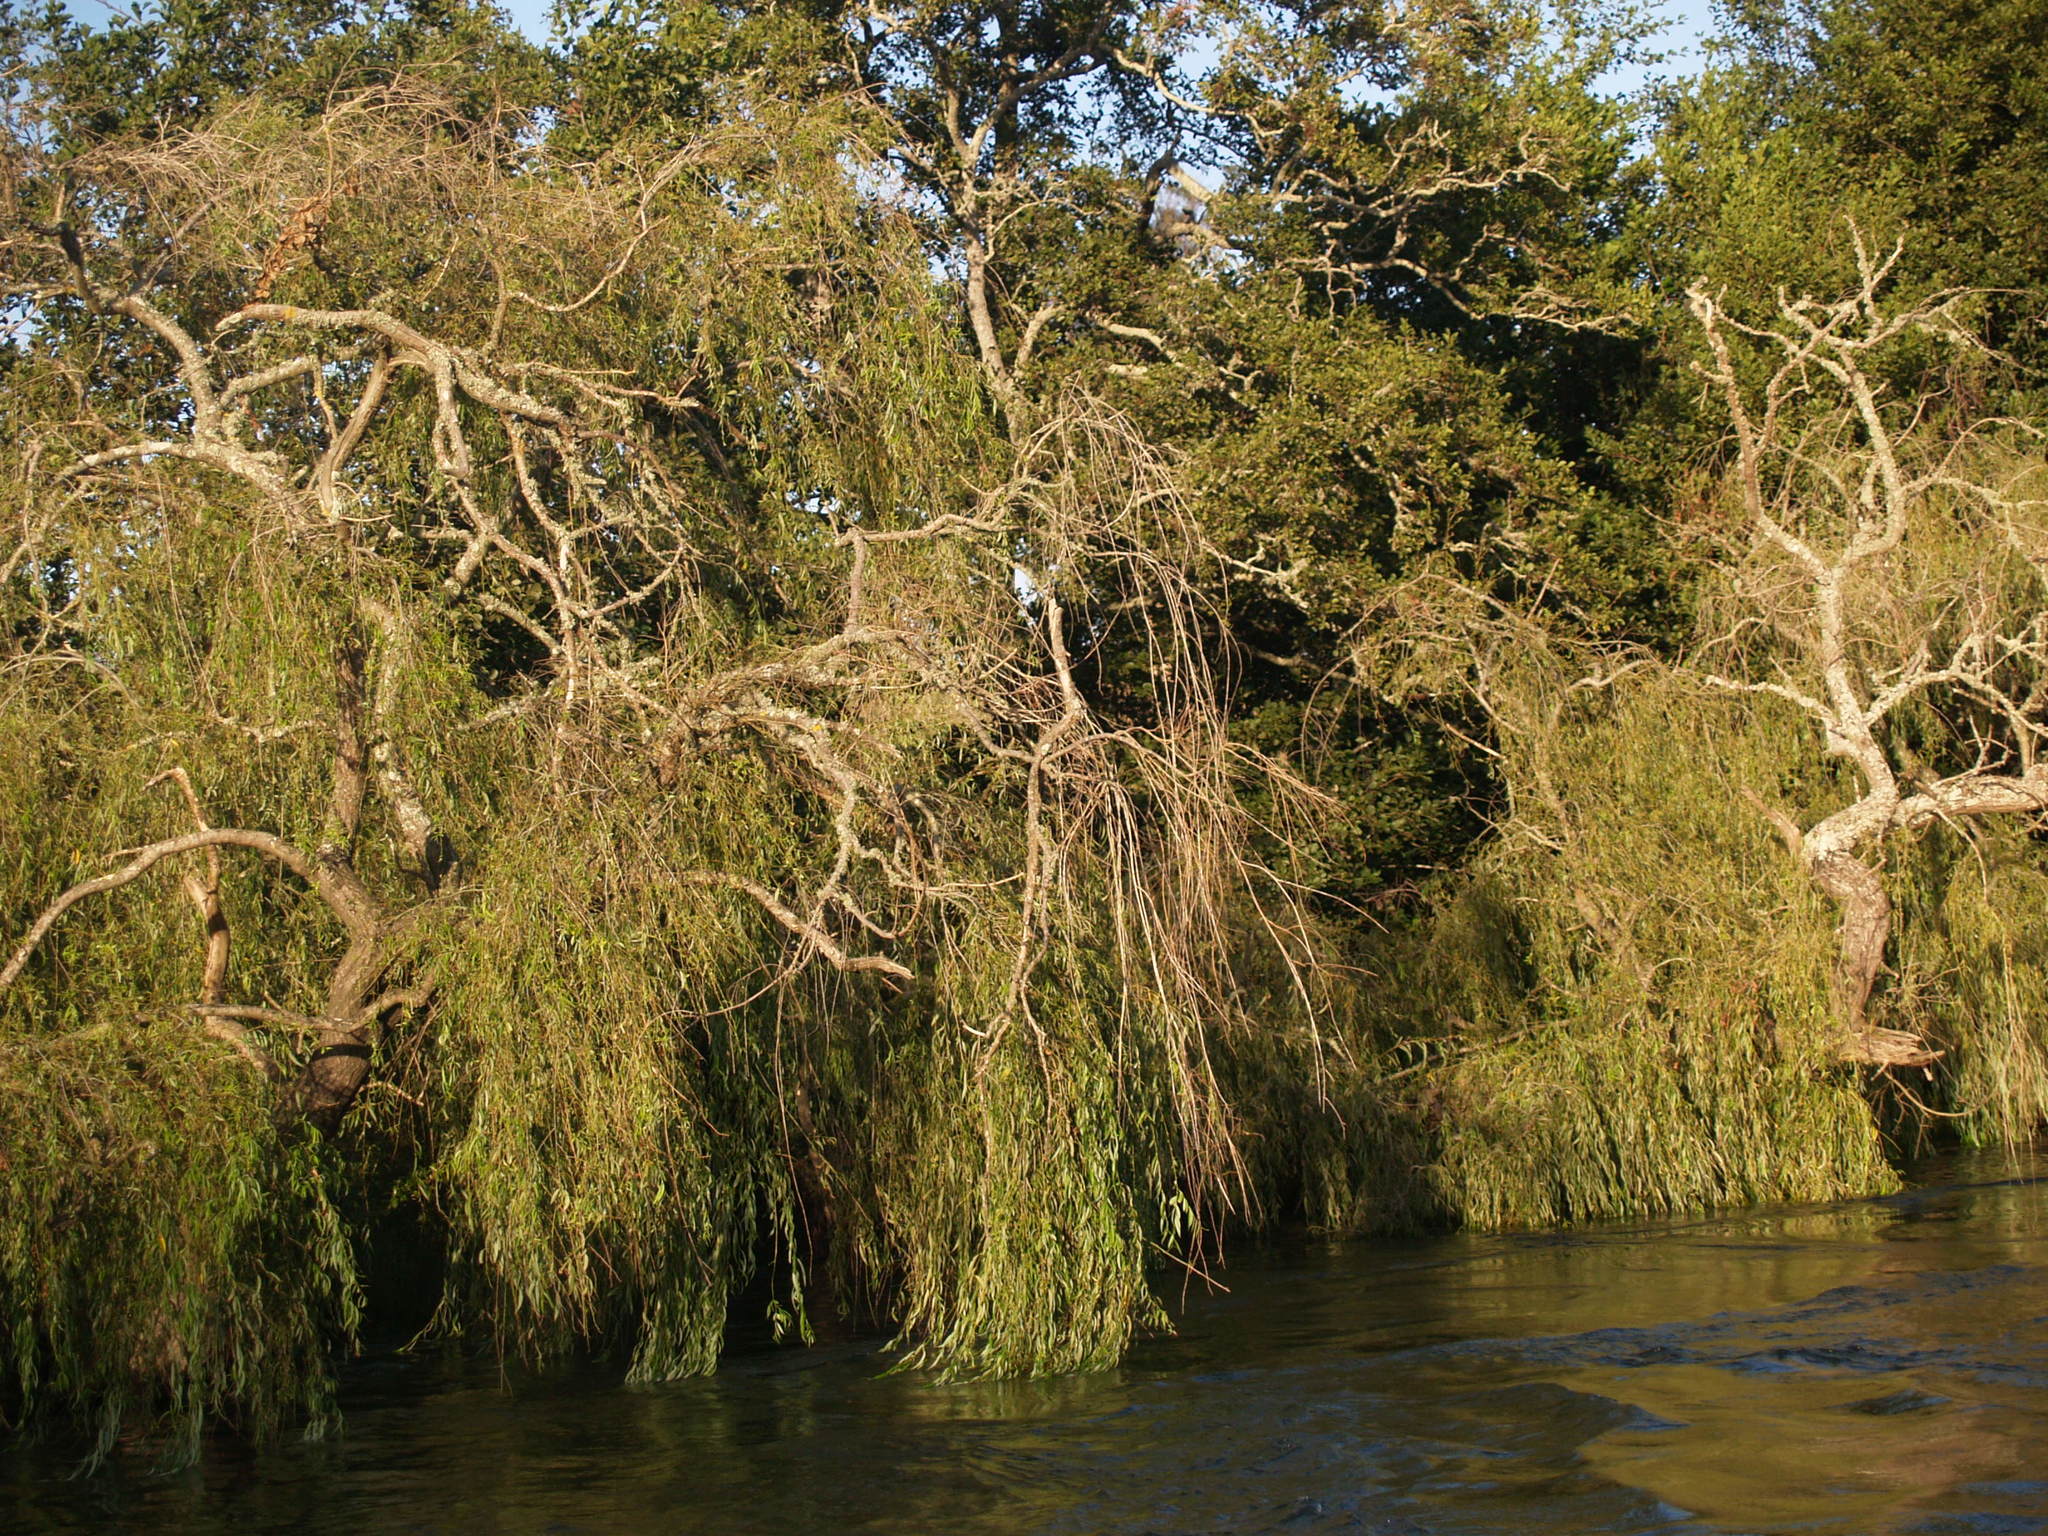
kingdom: Plantae
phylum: Tracheophyta
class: Magnoliopsida
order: Malpighiales
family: Salicaceae
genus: Salix
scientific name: Salix babylonica
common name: Weeping willow
